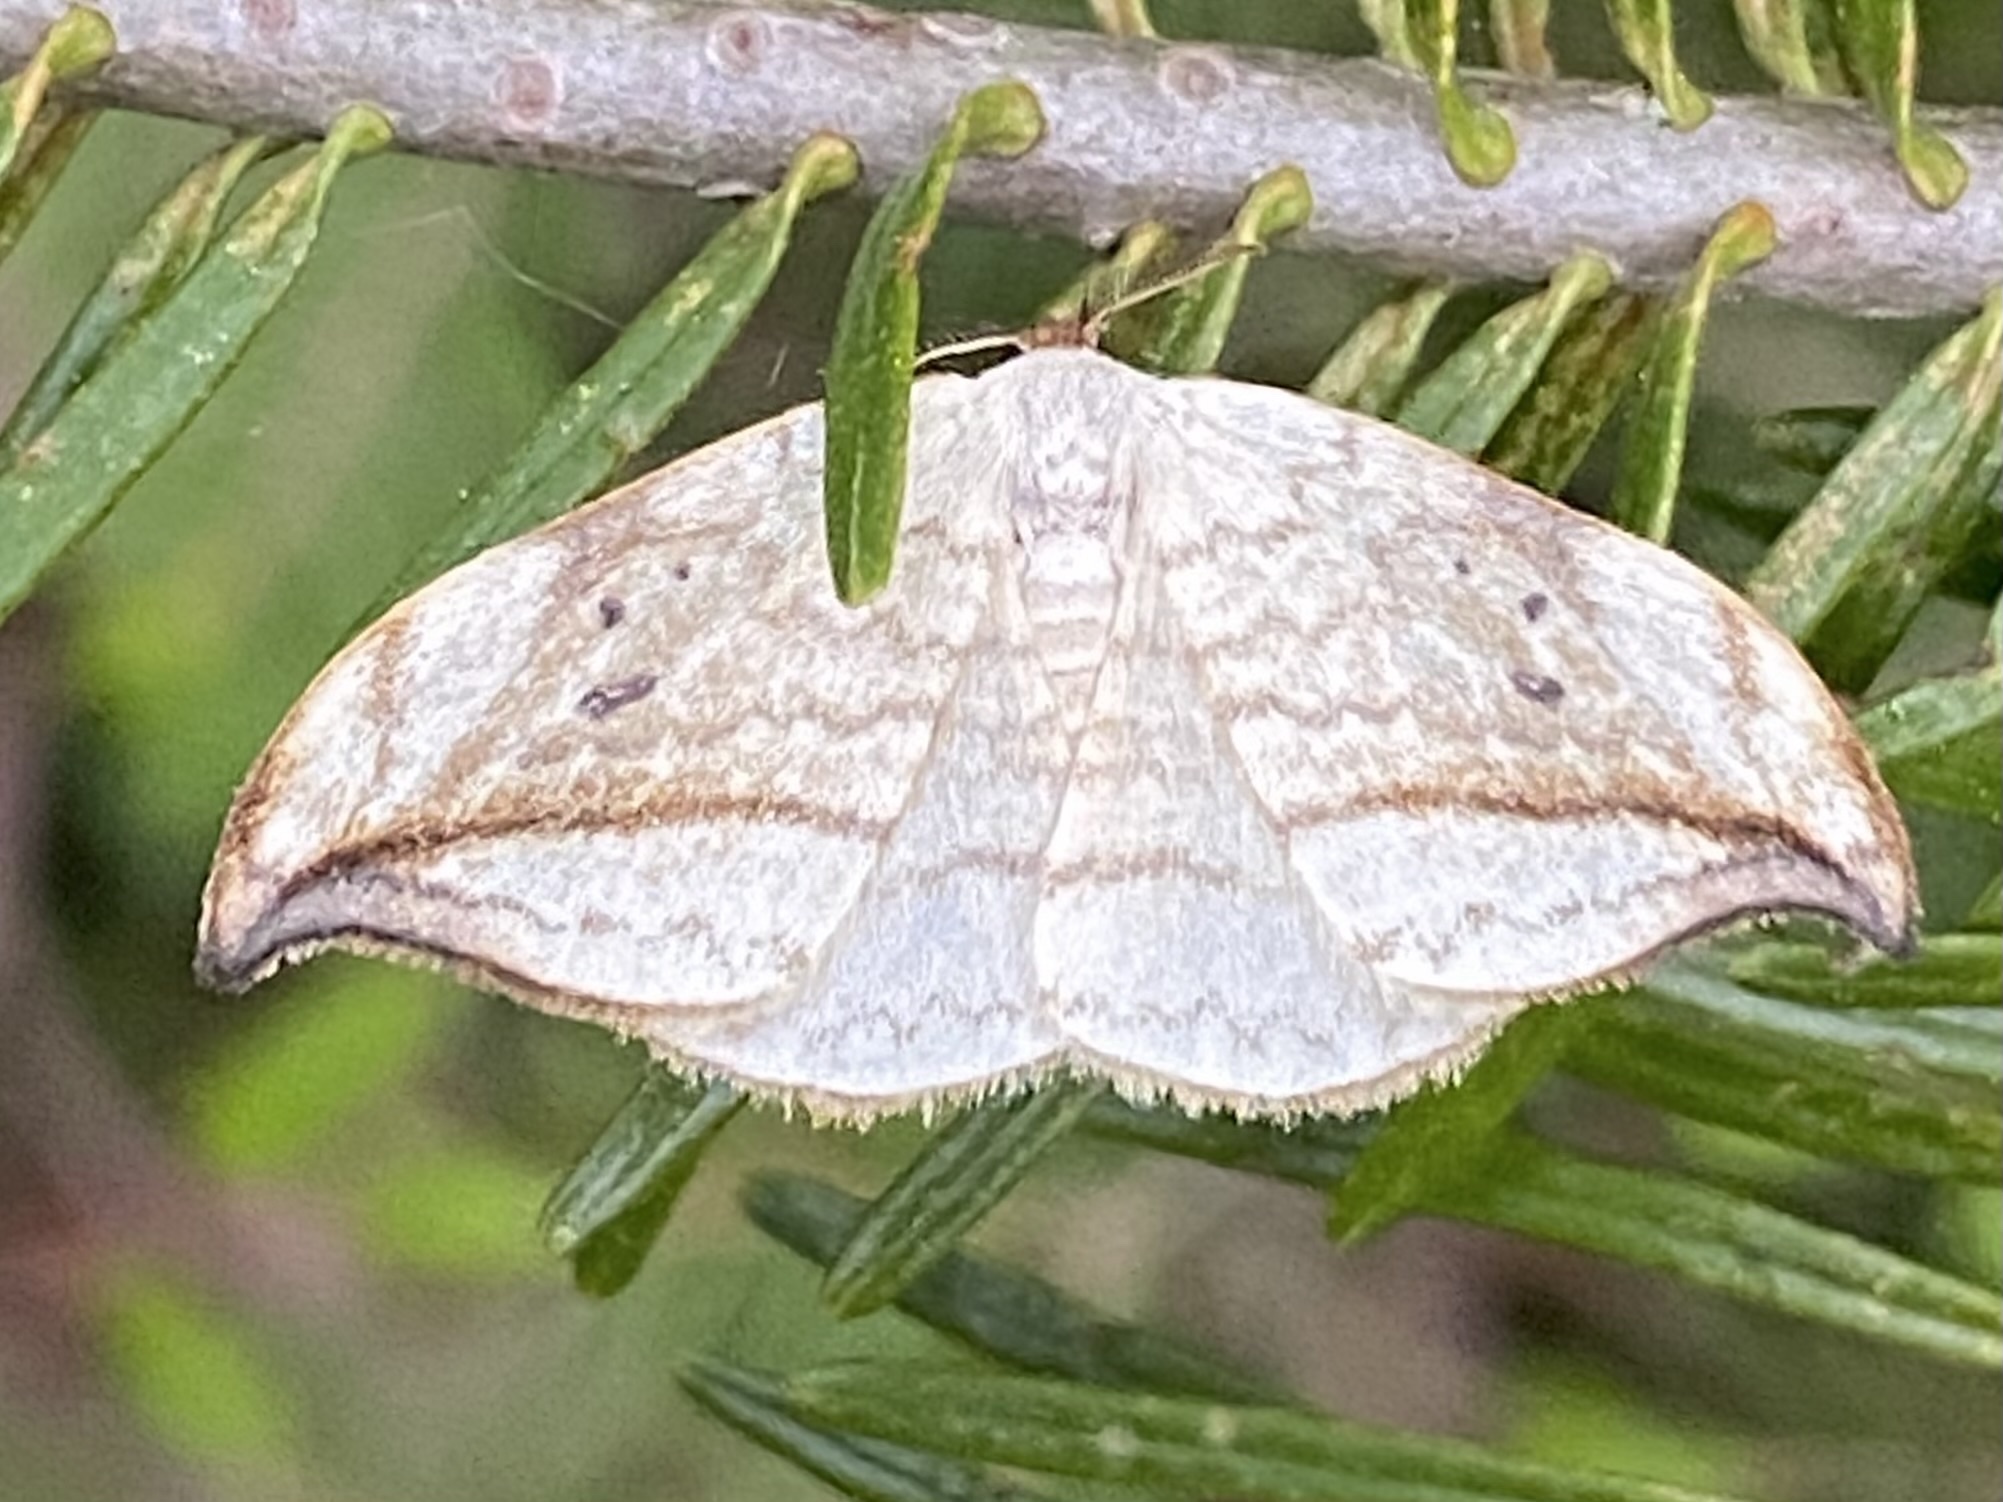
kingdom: Animalia
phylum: Arthropoda
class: Insecta
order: Lepidoptera
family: Drepanidae
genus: Drepana
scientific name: Drepana arcuata
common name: Arched hooktip moth
